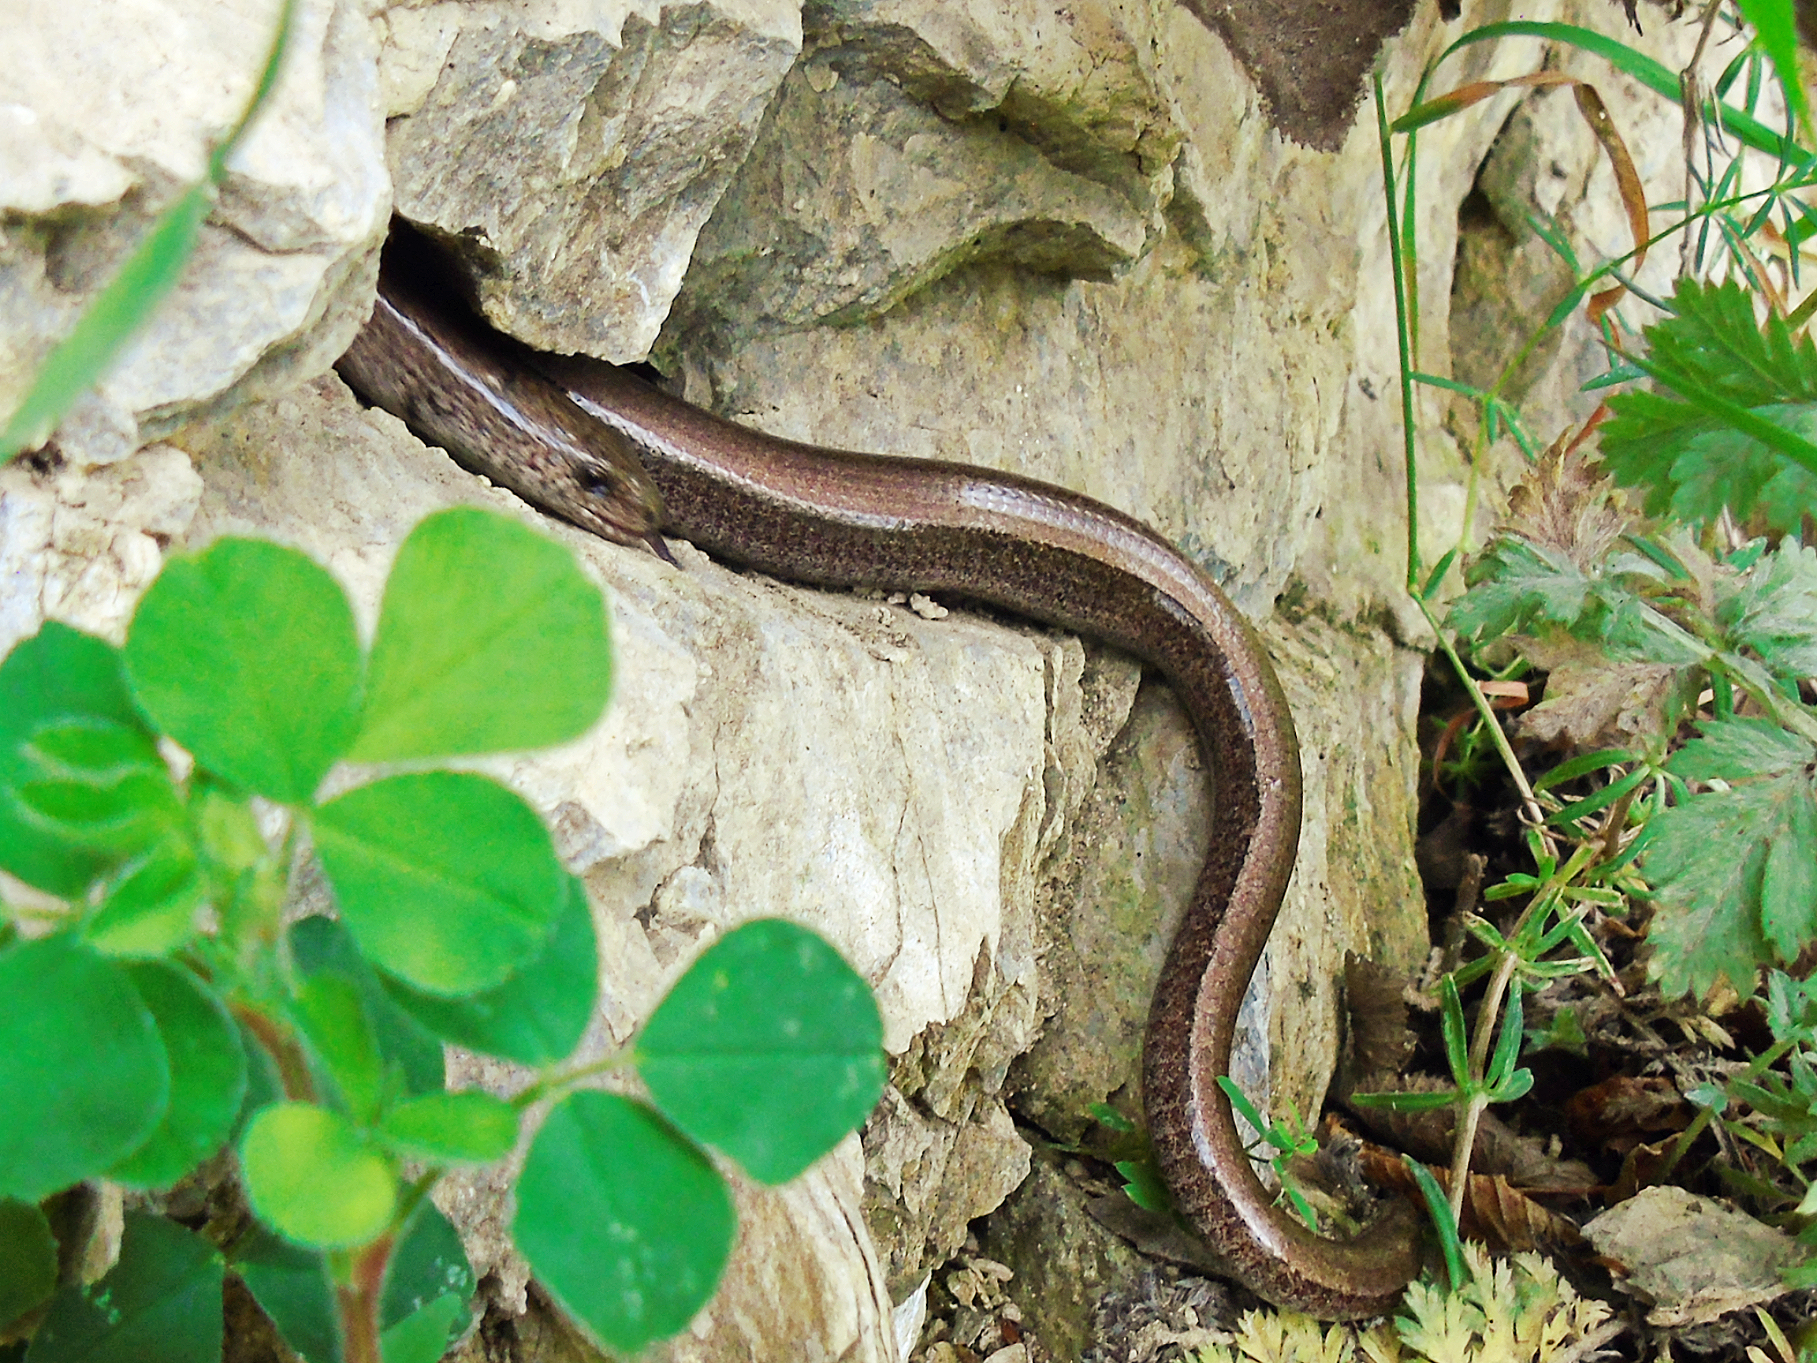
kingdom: Animalia
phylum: Chordata
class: Squamata
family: Anguidae
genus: Anguis
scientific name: Anguis colchica
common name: Slow worm
